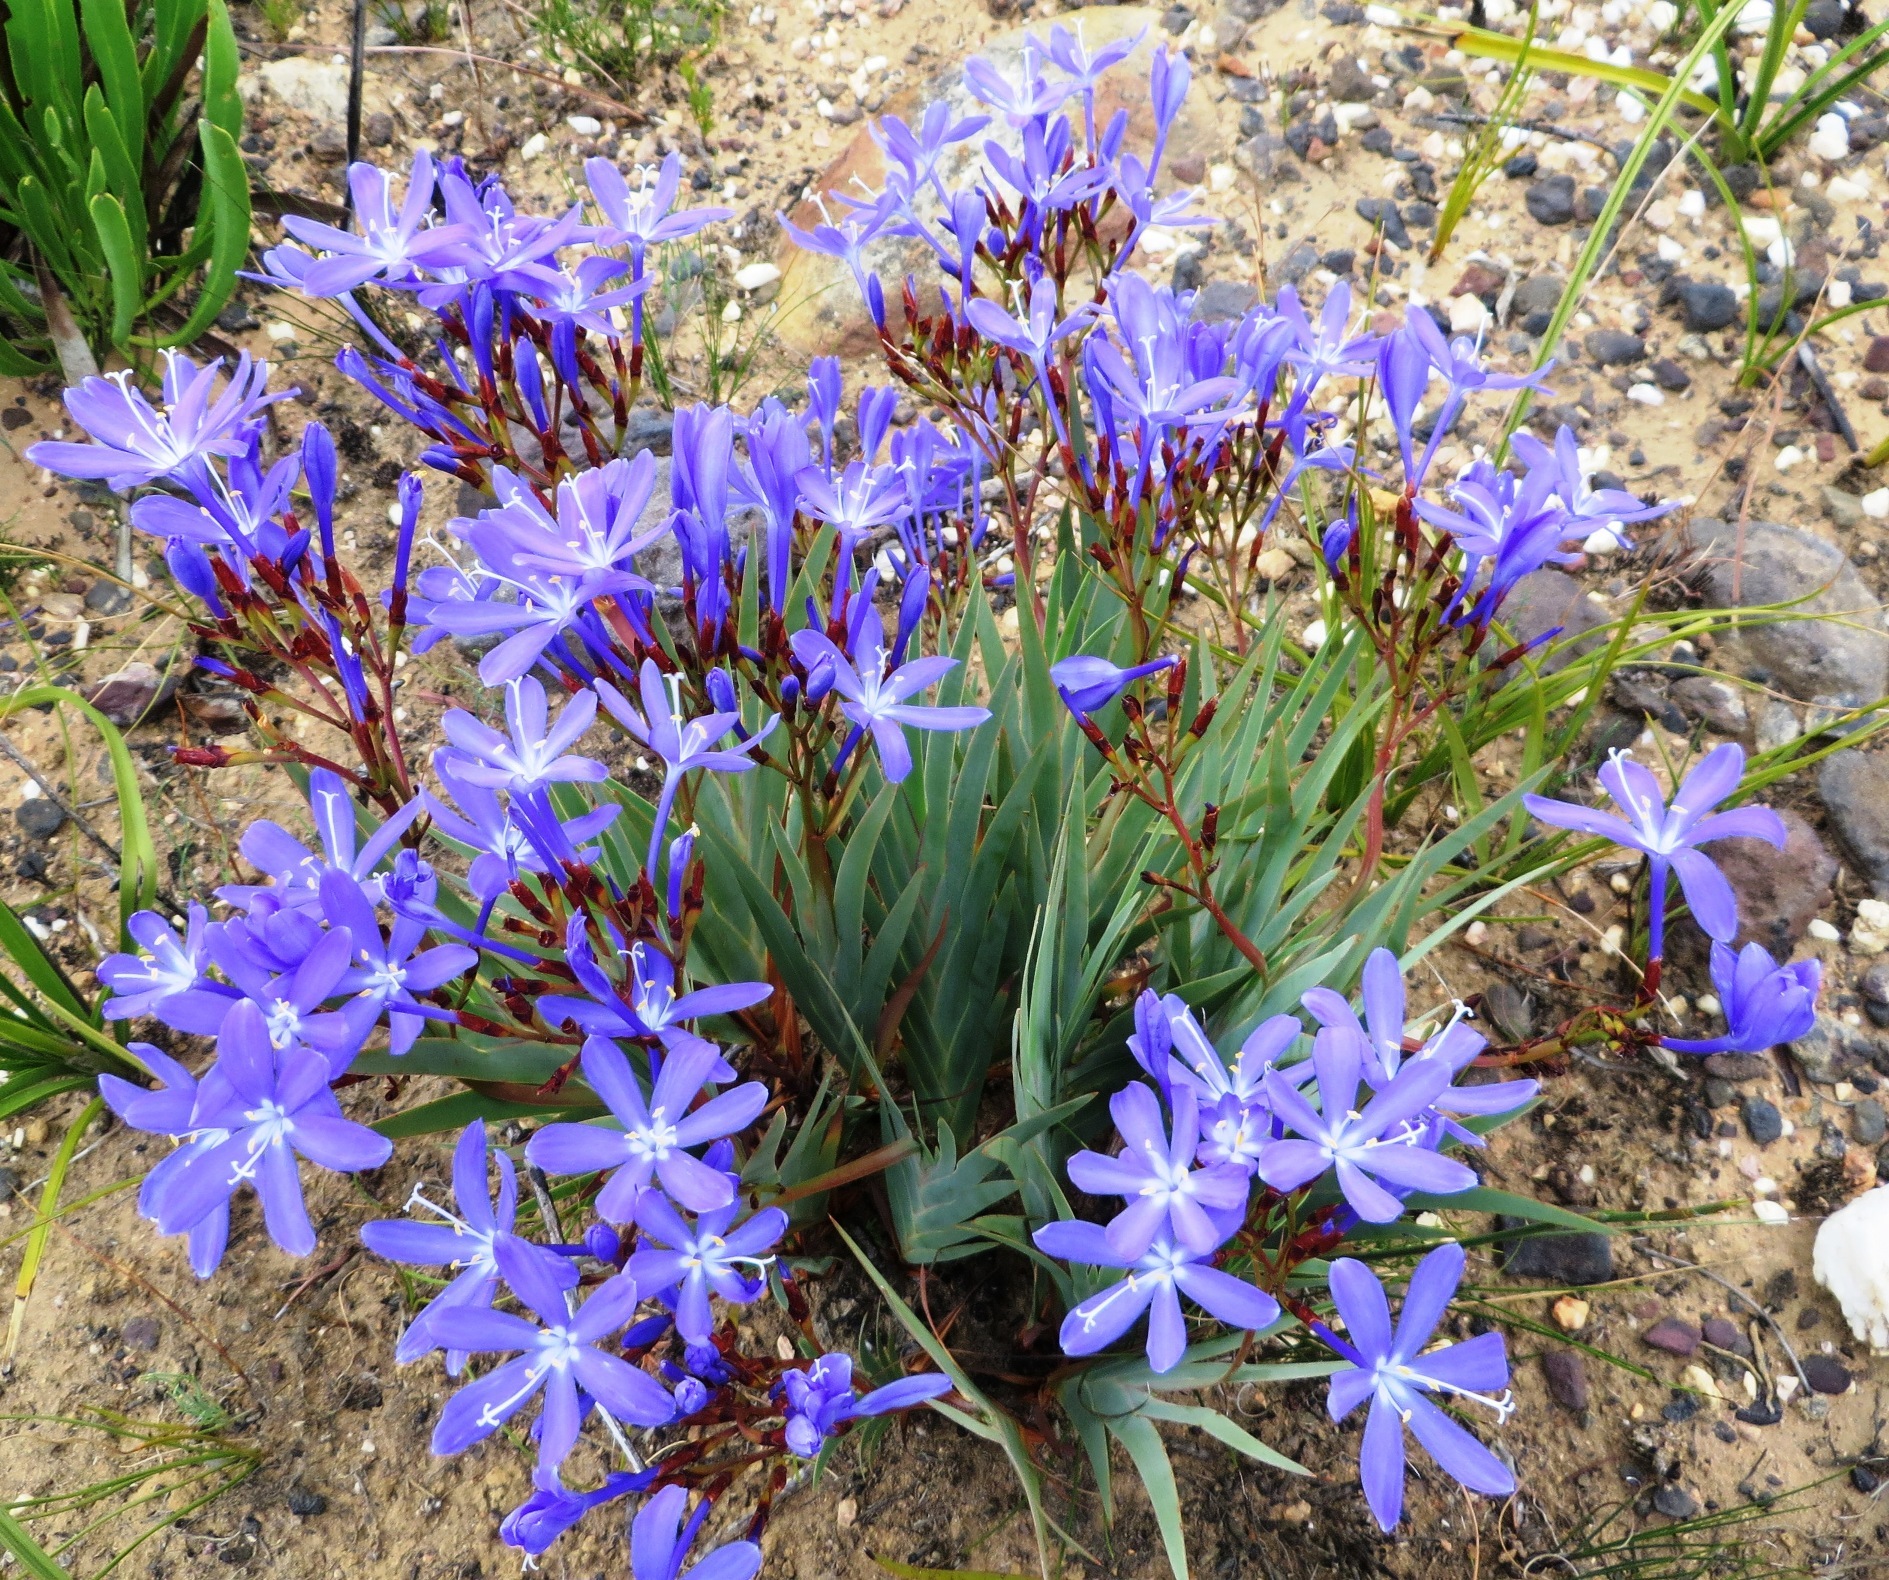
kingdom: Plantae
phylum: Tracheophyta
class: Liliopsida
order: Asparagales
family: Iridaceae
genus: Nivenia
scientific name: Nivenia stokoei
